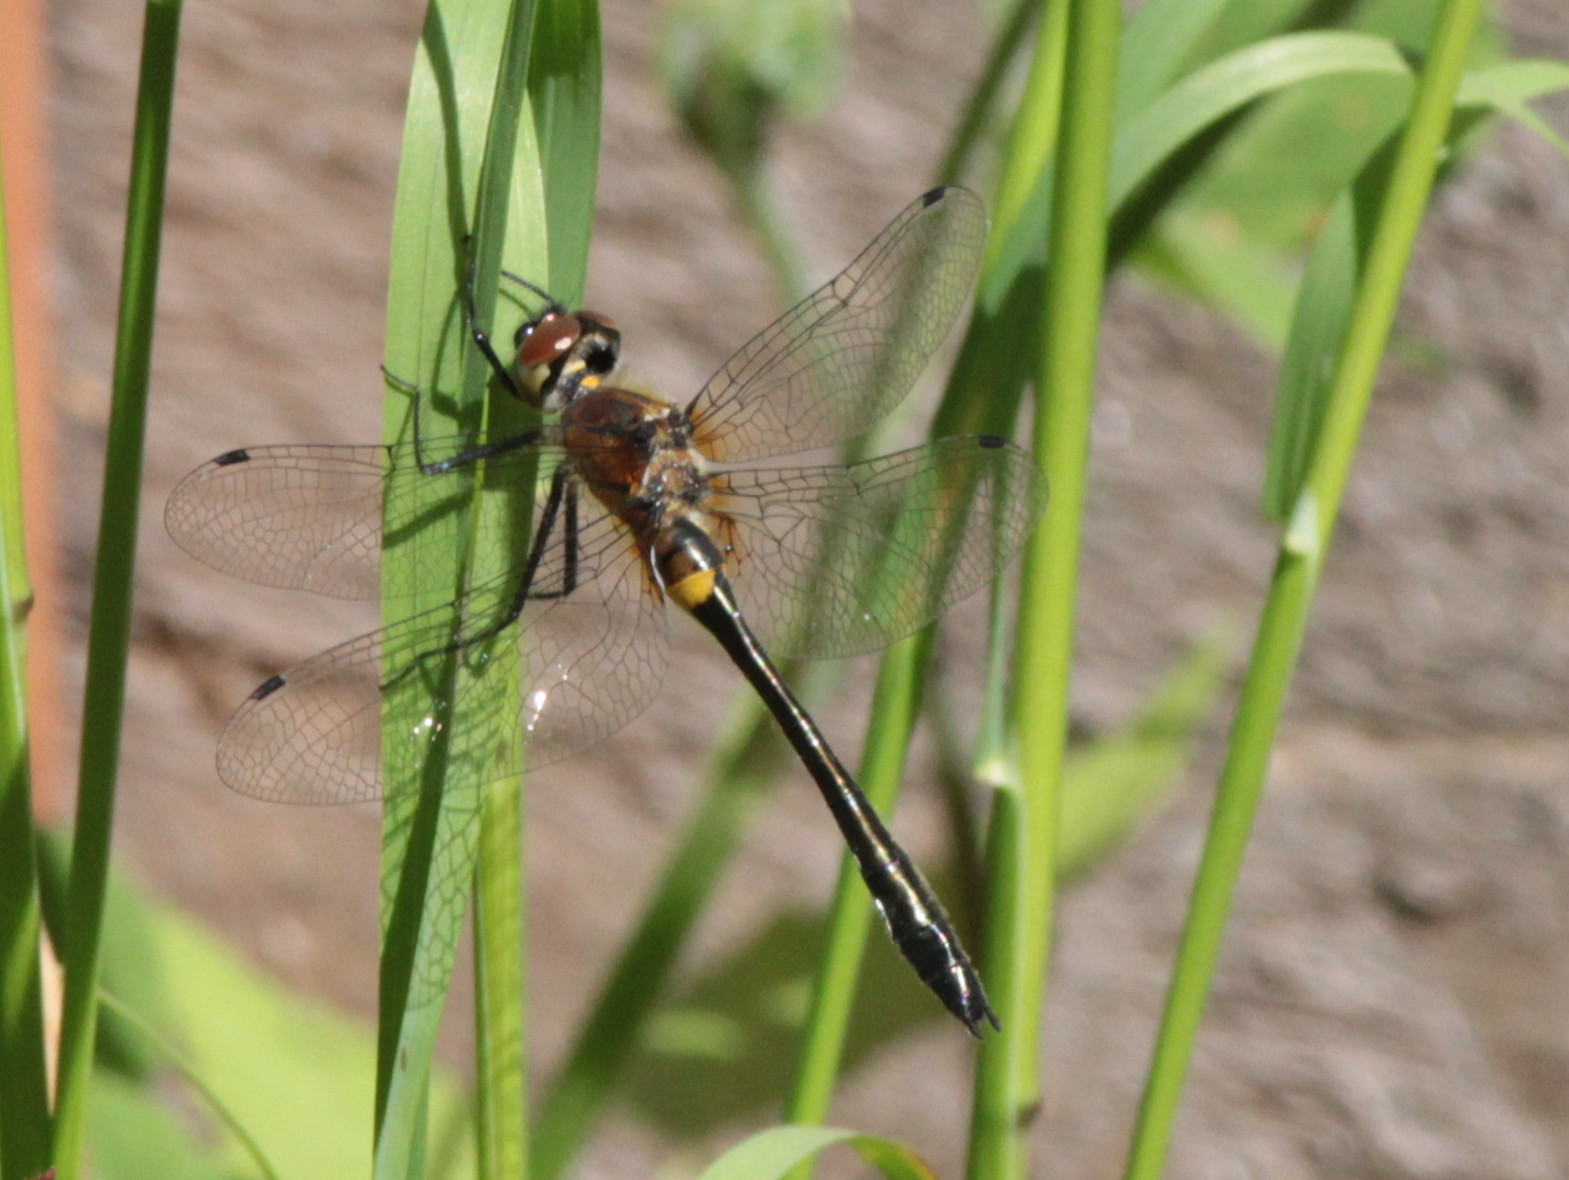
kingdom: Animalia
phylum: Arthropoda
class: Insecta
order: Odonata
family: Corduliidae
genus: Dorocordulia
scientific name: Dorocordulia libera
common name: Racket-tailed emerald
